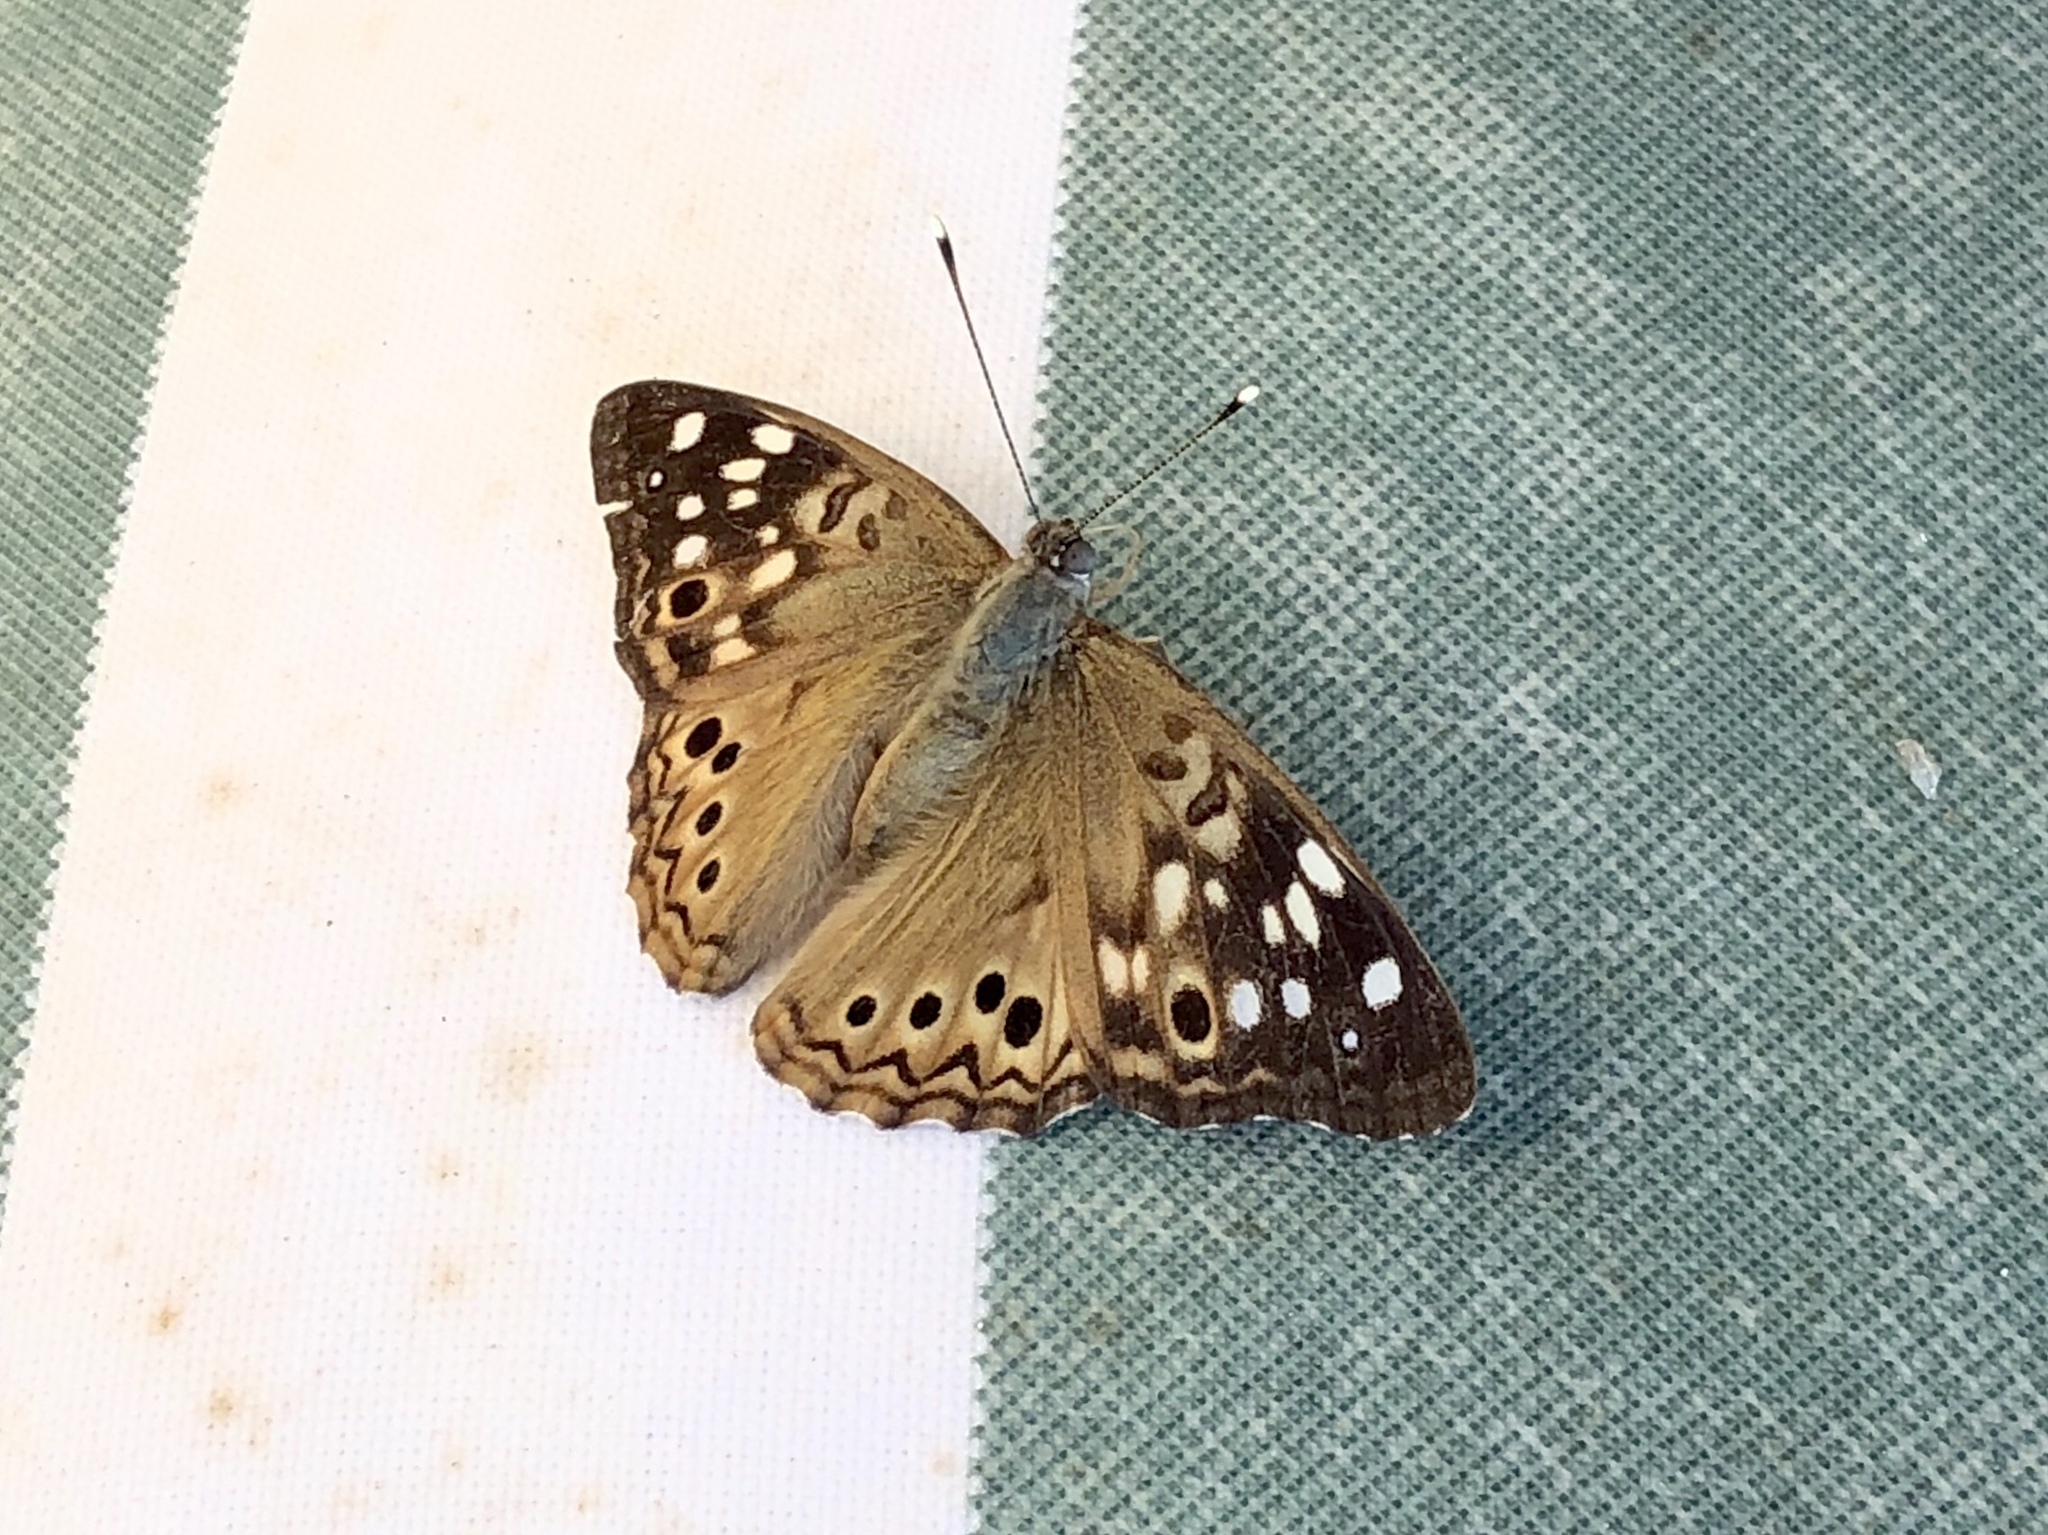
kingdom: Animalia
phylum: Arthropoda
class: Insecta
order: Lepidoptera
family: Nymphalidae
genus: Asterocampa
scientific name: Asterocampa celtis
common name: Hackberry emperor
